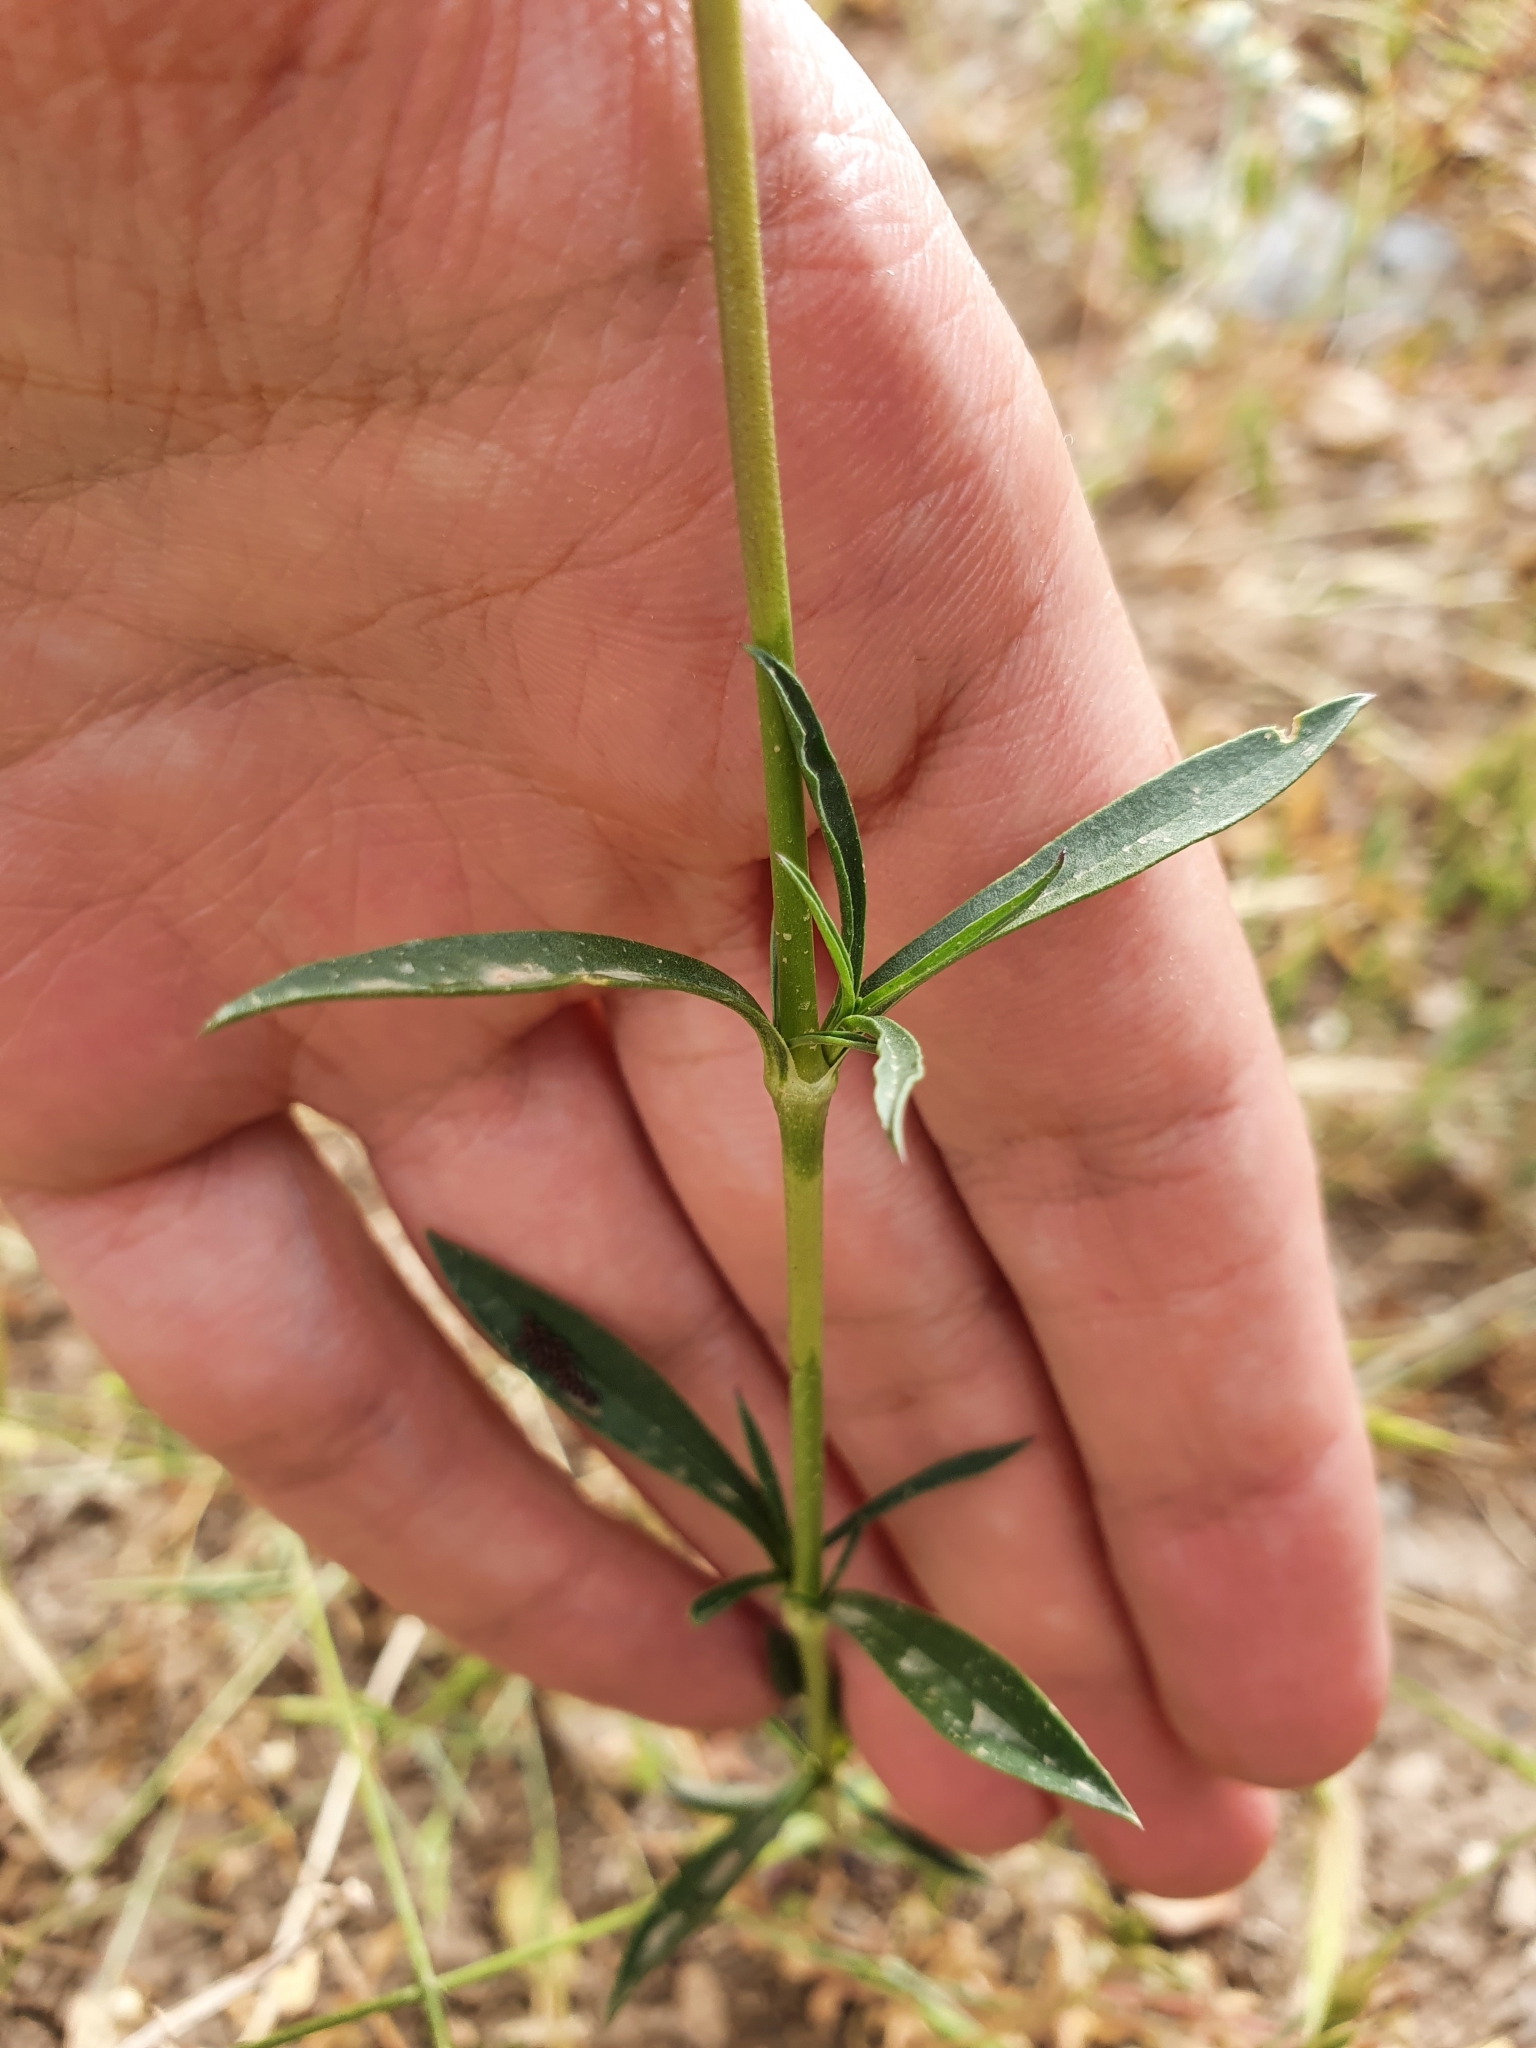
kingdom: Plantae
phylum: Tracheophyta
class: Magnoliopsida
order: Caryophyllales
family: Caryophyllaceae
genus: Silene
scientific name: Silene muscipula
